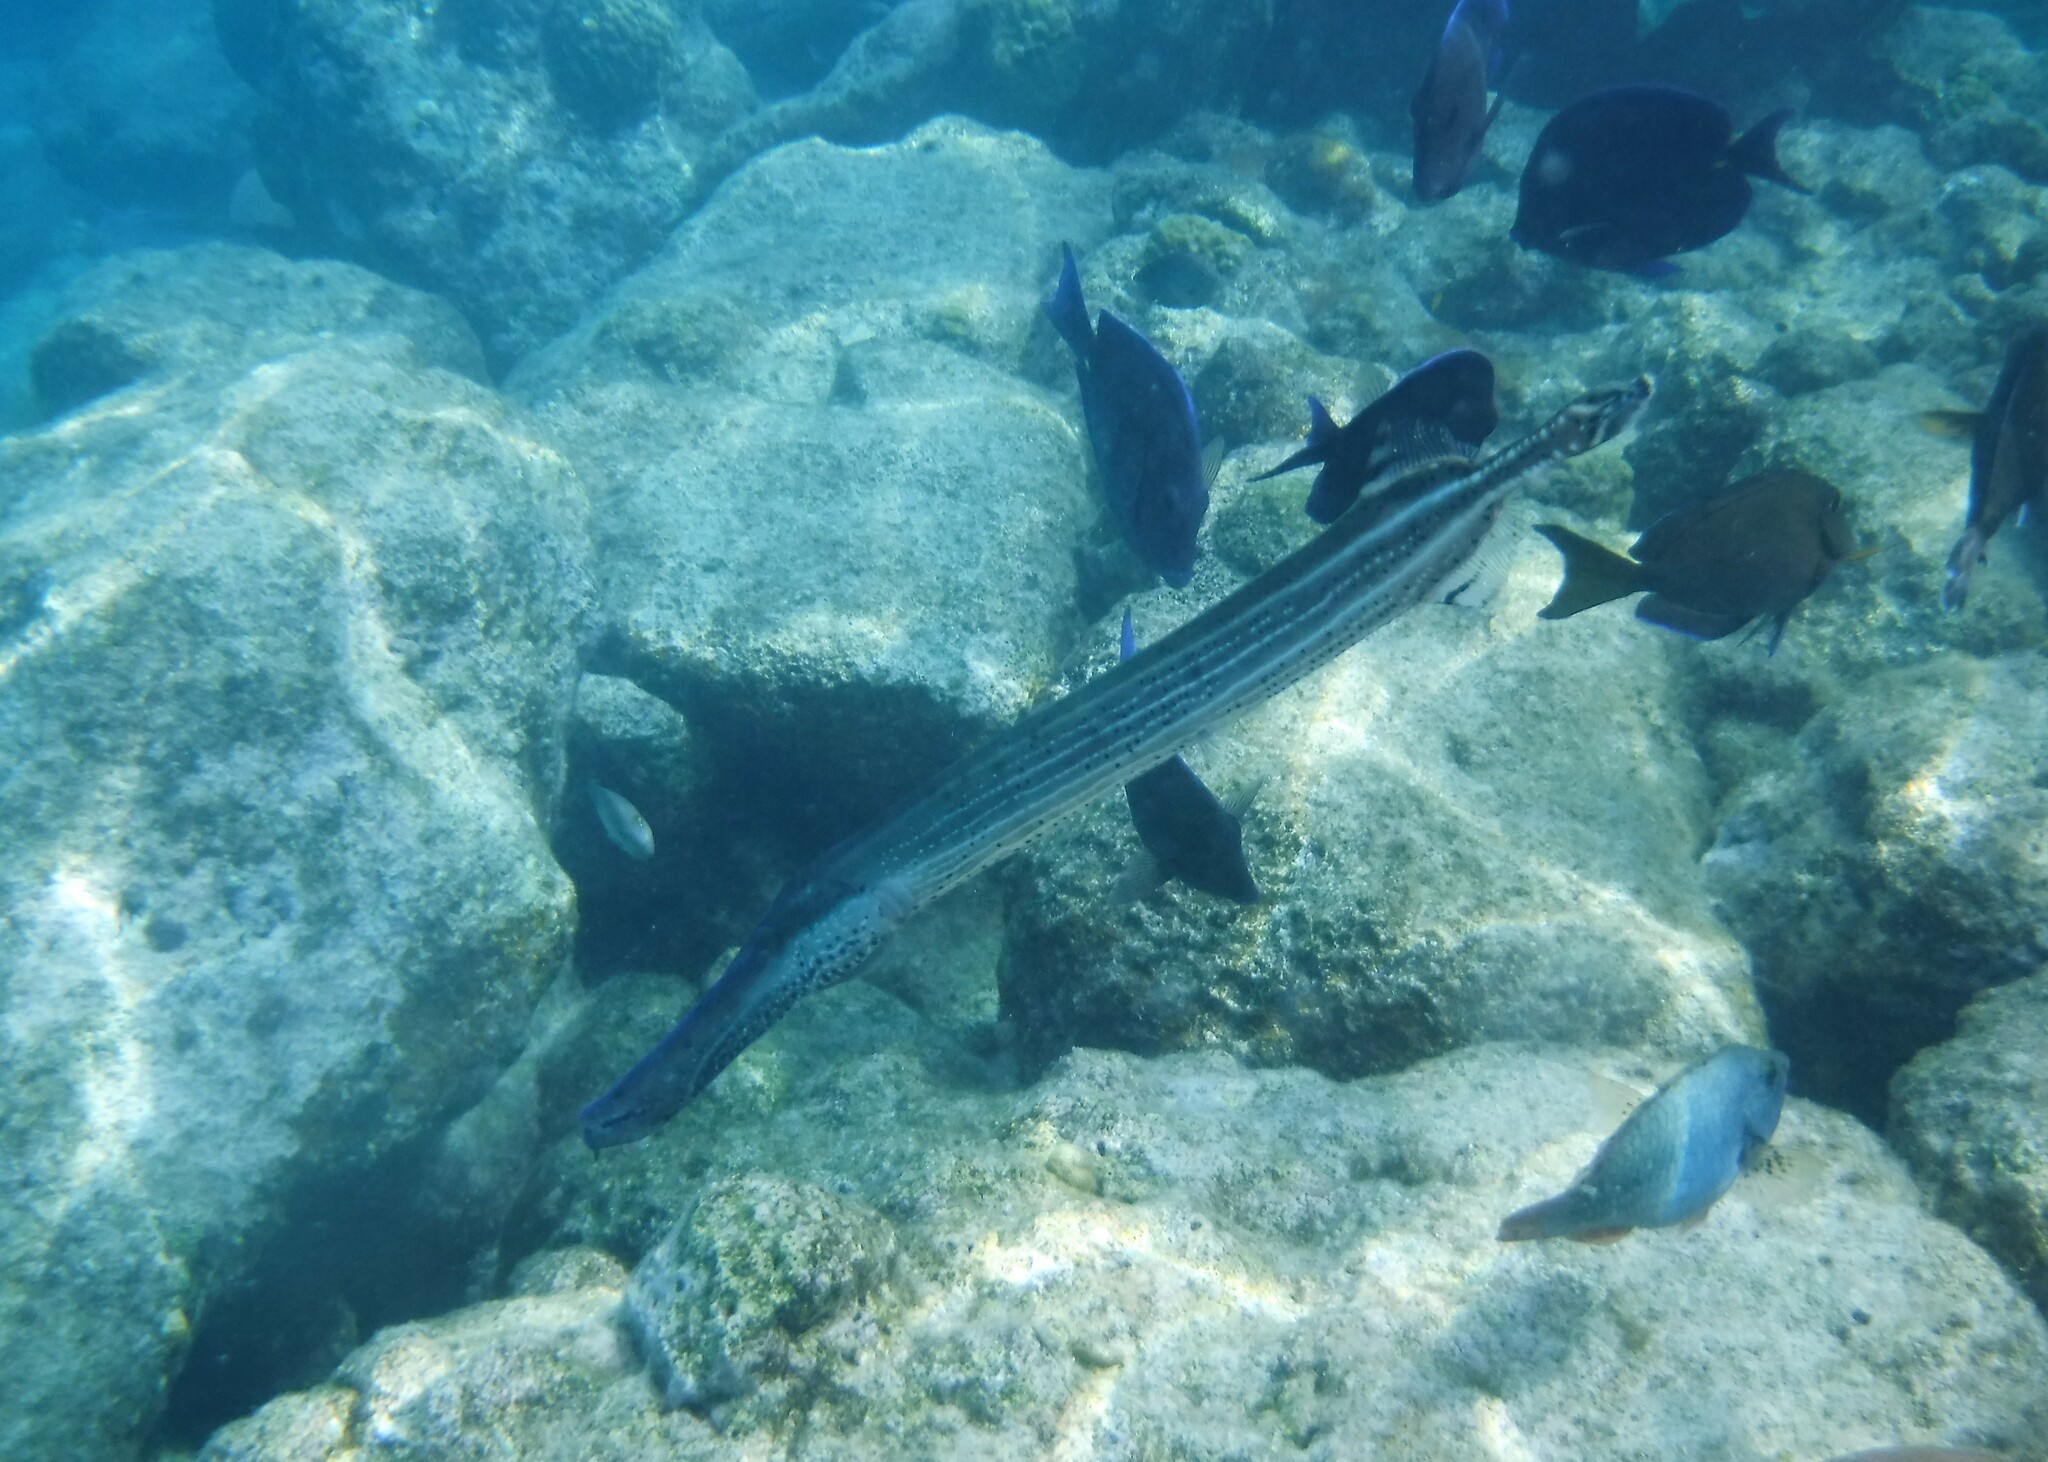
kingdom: Animalia
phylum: Chordata
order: Syngnathiformes
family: Aulostomidae
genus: Aulostomus
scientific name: Aulostomus maculatus
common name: West atlantic trumpetfish
